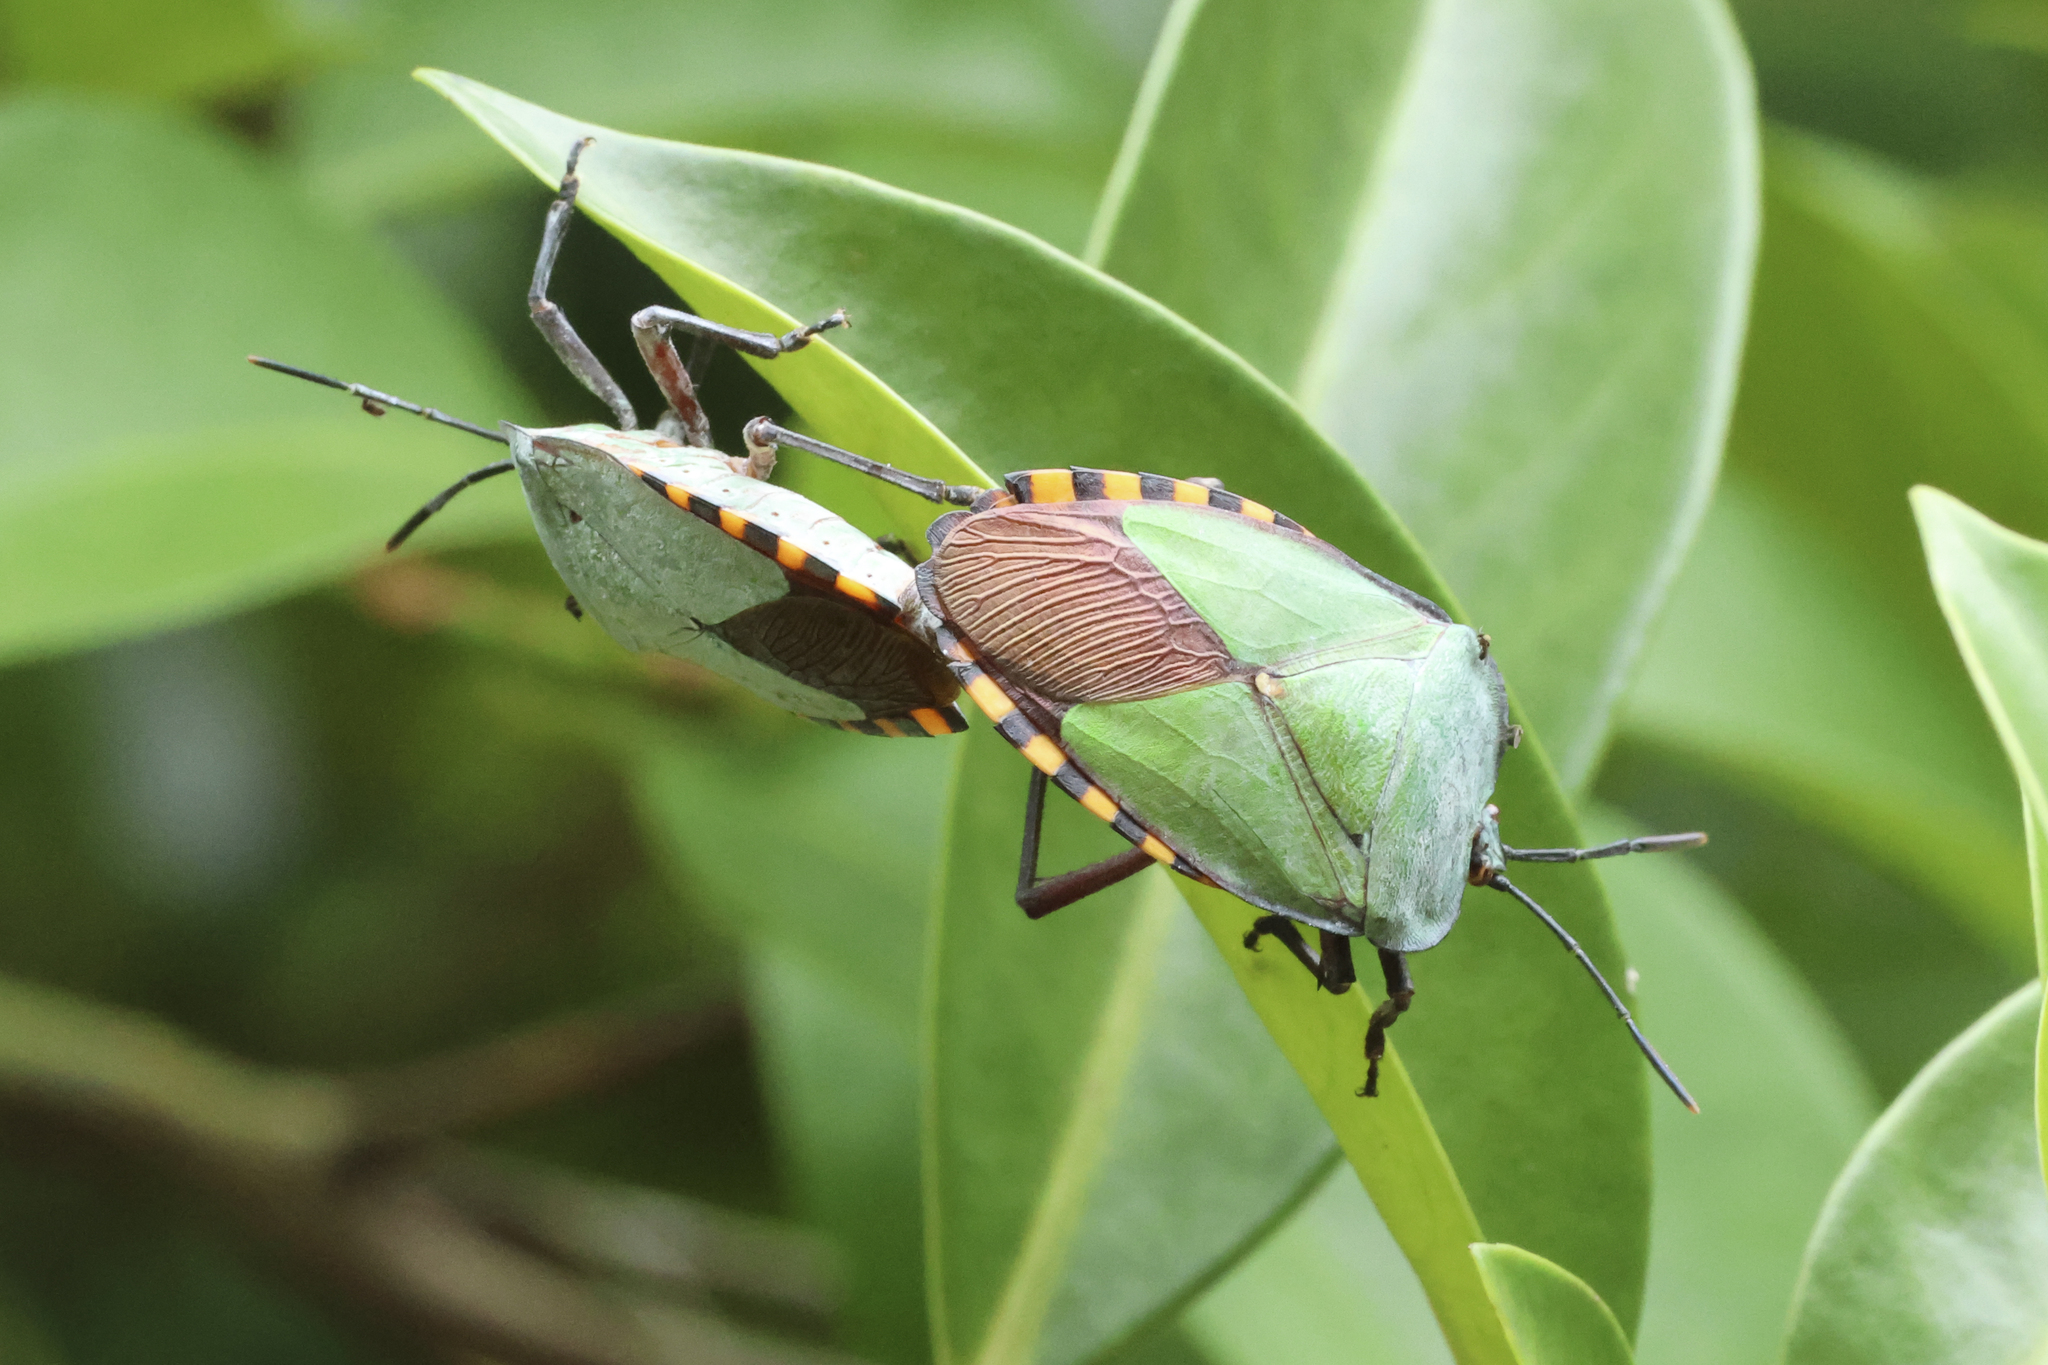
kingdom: Animalia
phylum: Arthropoda
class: Insecta
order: Hemiptera
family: Tessaratomidae
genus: Pycanum
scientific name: Pycanum alternatum
